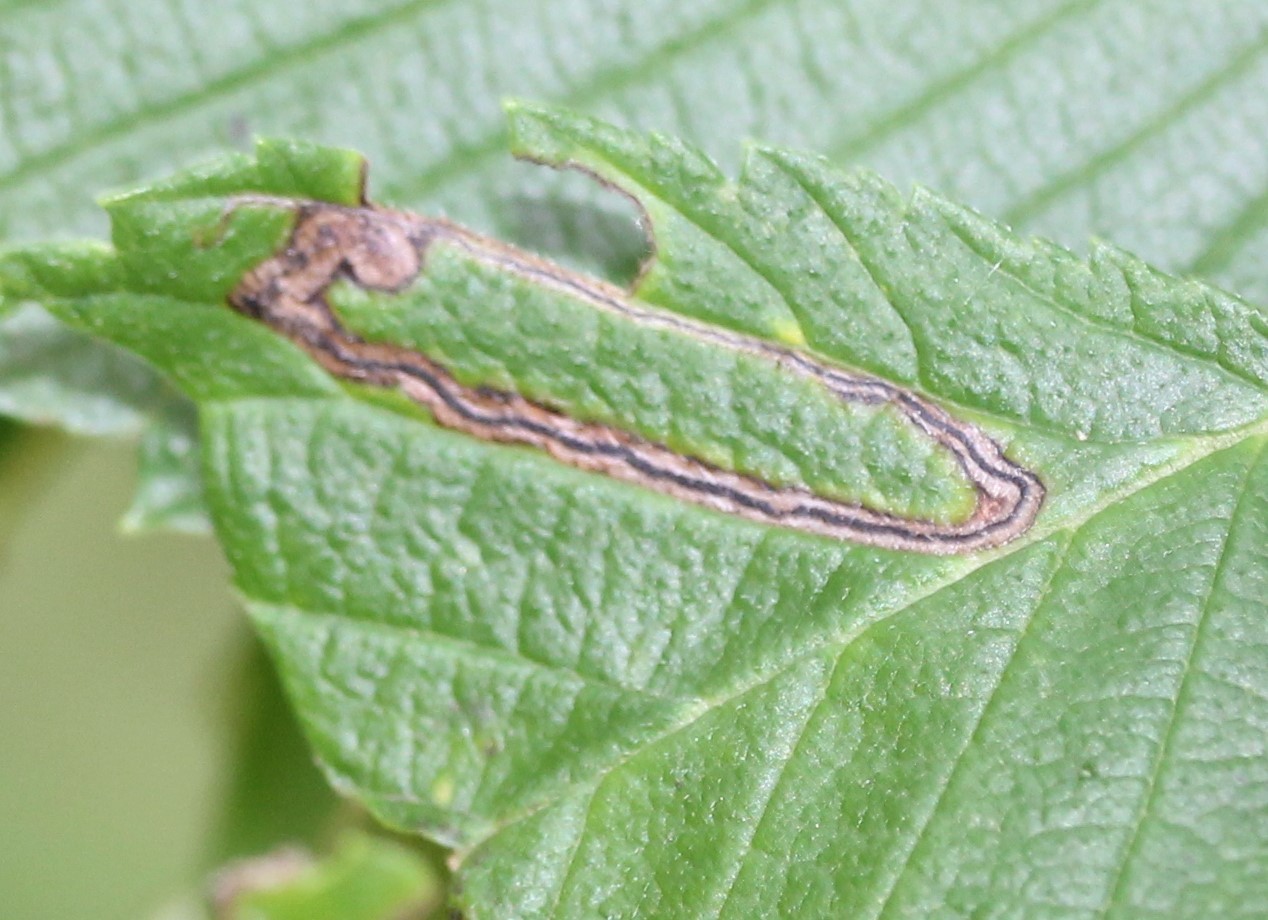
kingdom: Animalia
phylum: Arthropoda
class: Insecta
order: Lepidoptera
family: Nepticulidae
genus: Stigmella
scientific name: Stigmella apicialbella
